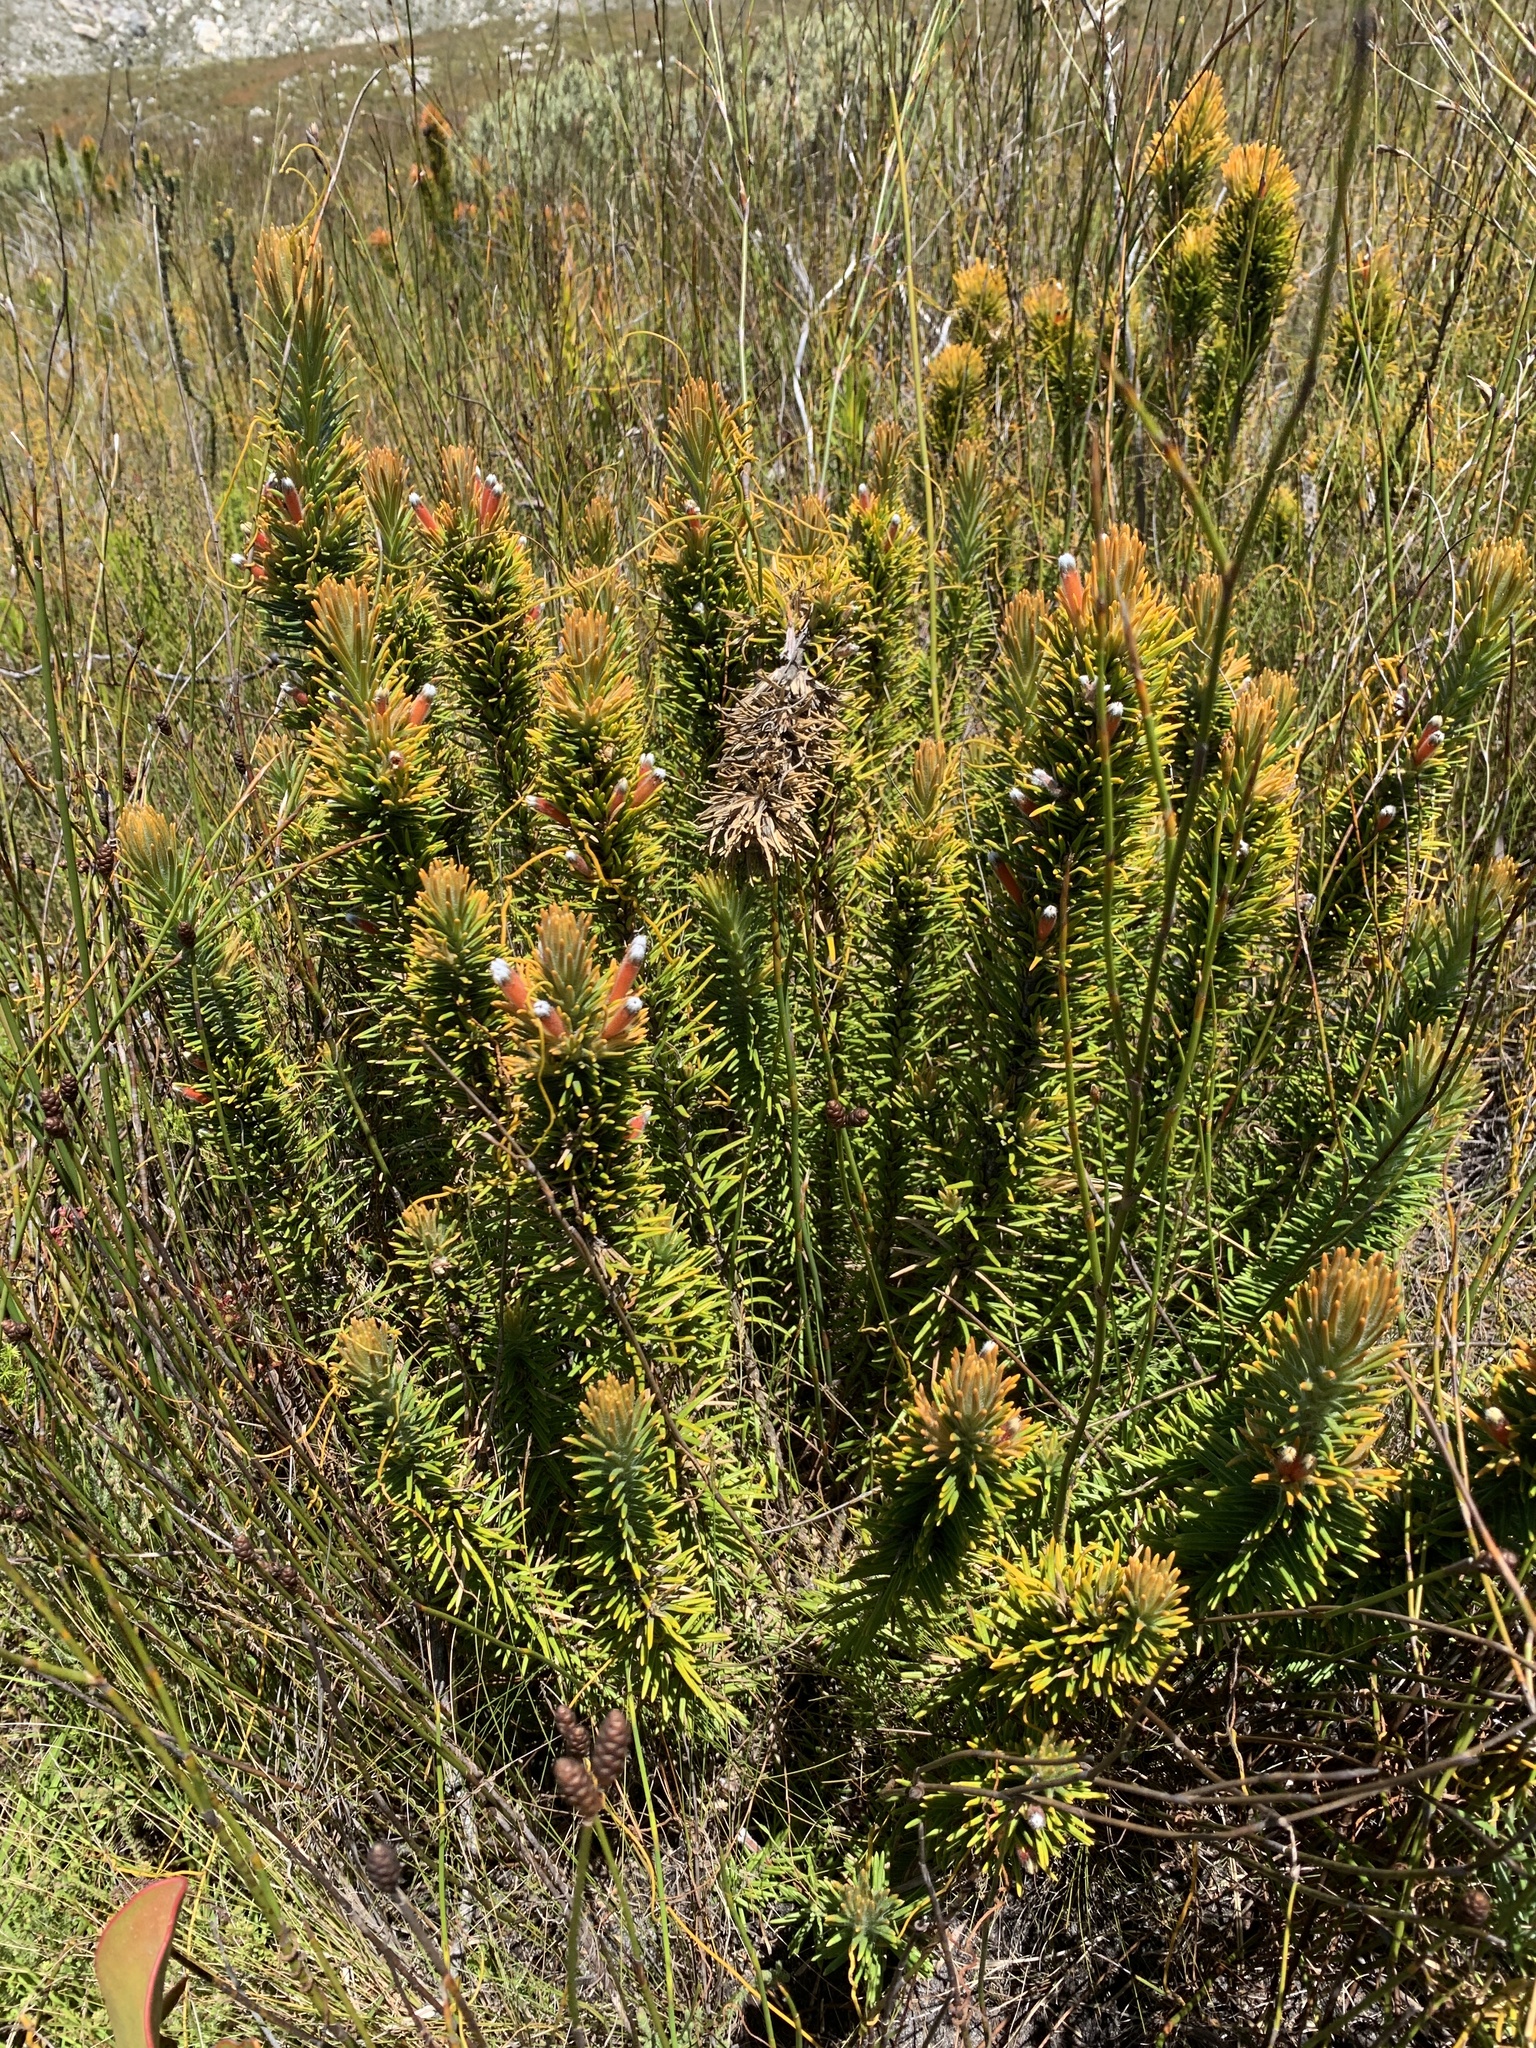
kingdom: Plantae
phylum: Tracheophyta
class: Magnoliopsida
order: Lamiales
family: Stilbaceae
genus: Retzia
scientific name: Retzia capensis
